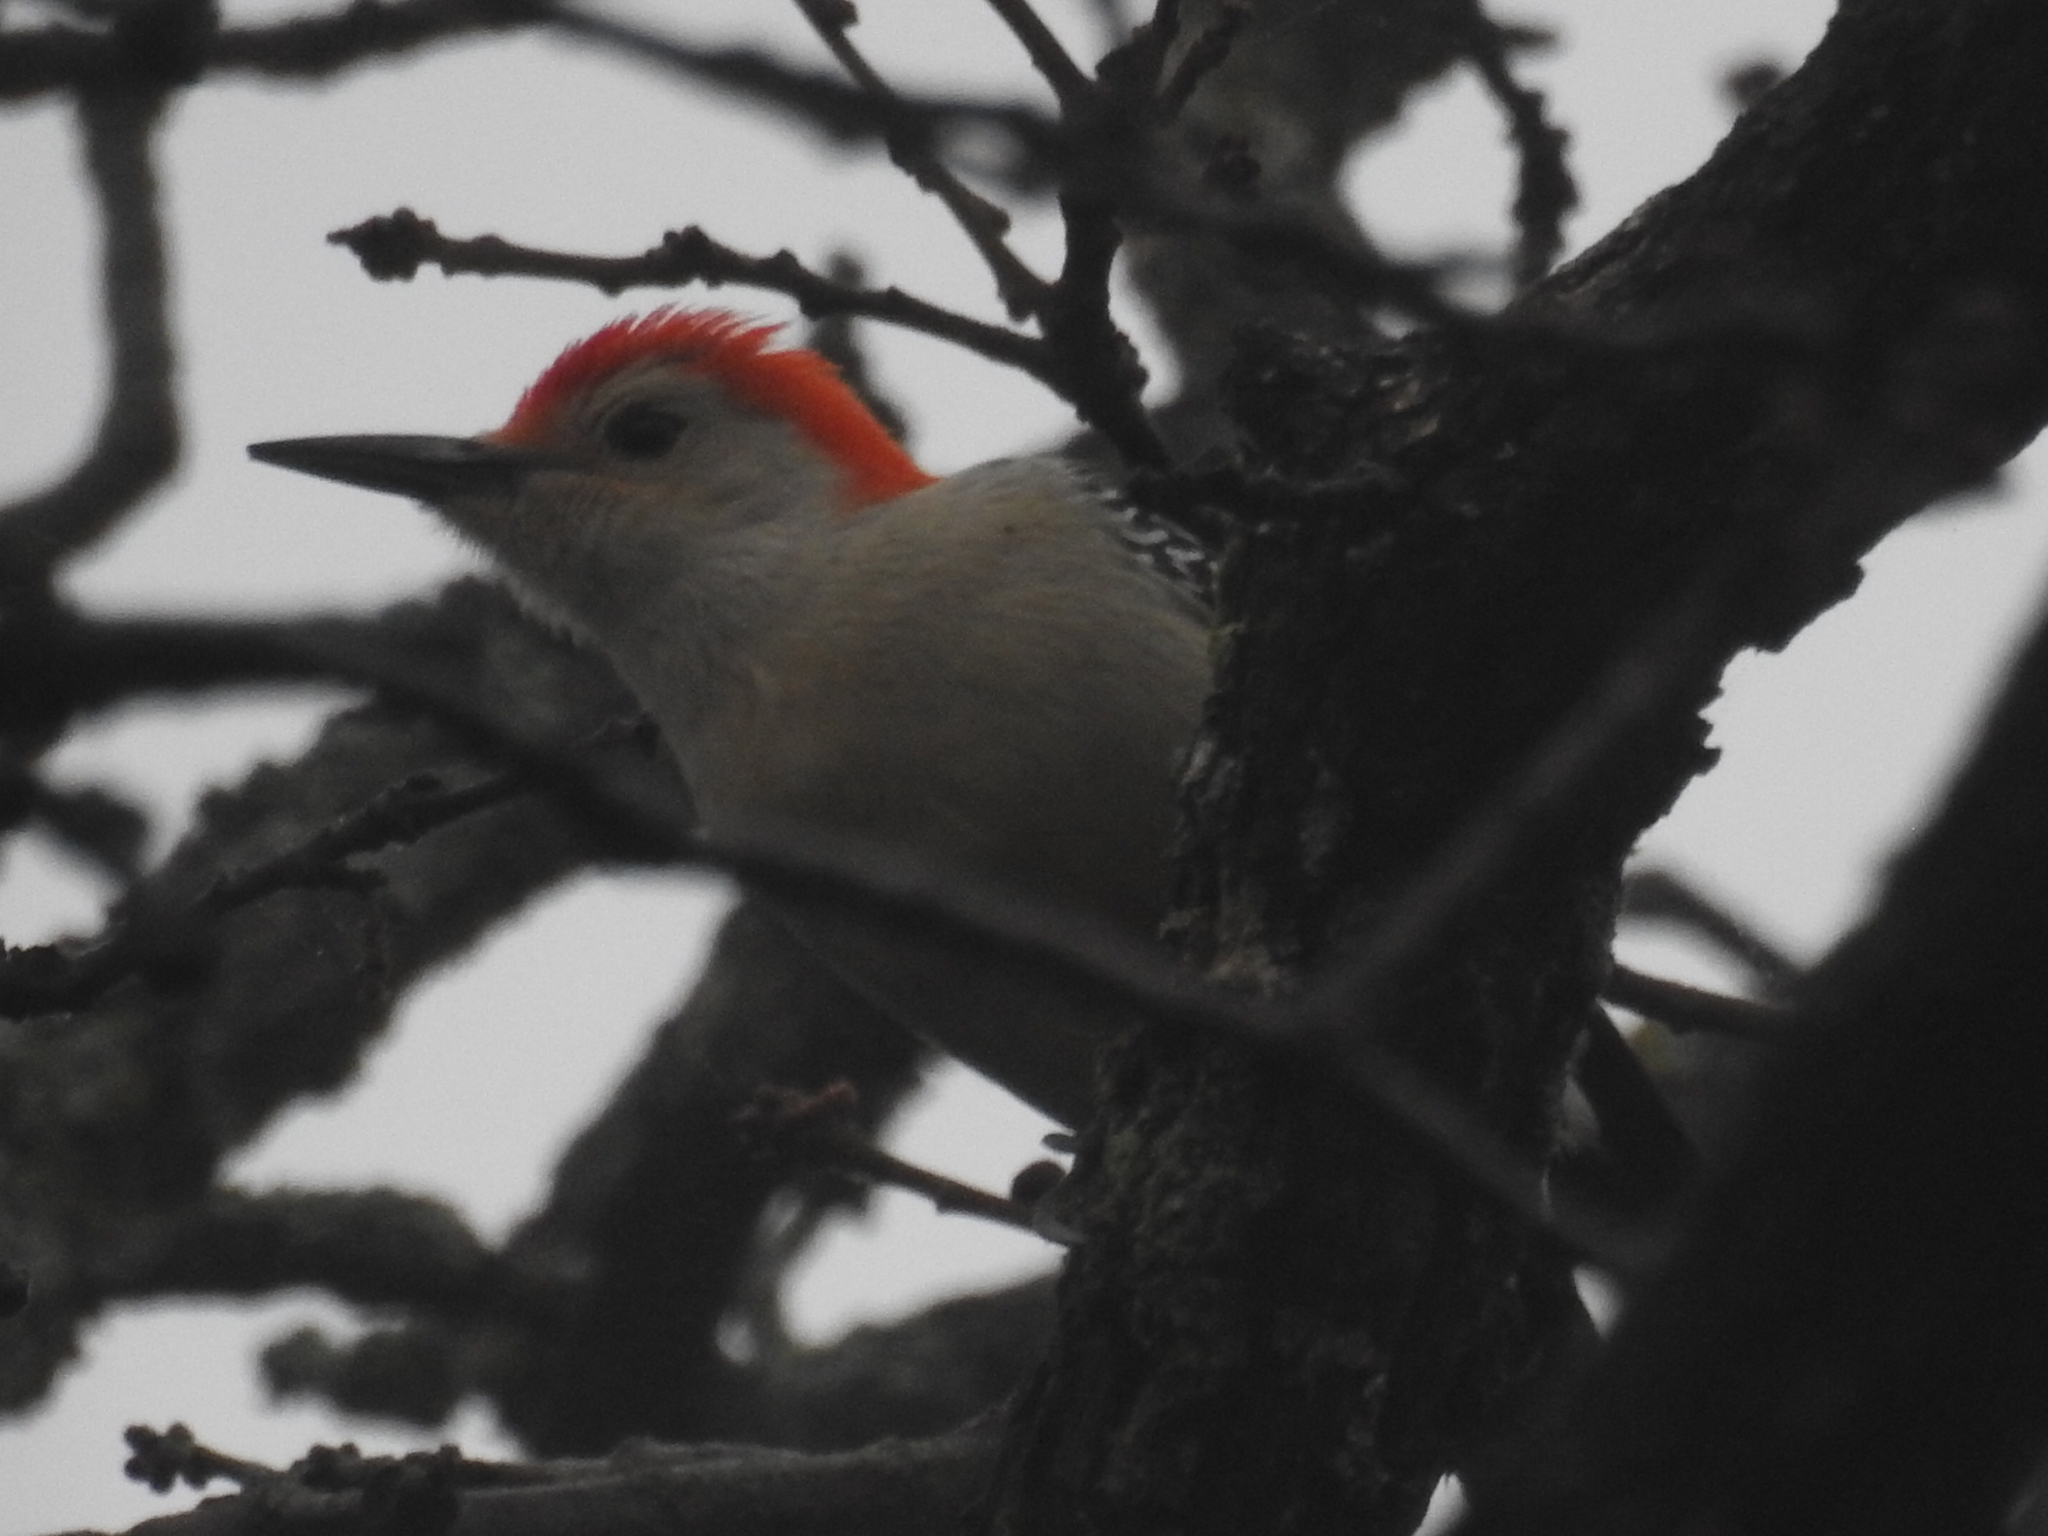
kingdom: Animalia
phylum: Chordata
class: Aves
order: Piciformes
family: Picidae
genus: Melanerpes
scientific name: Melanerpes carolinus
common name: Red-bellied woodpecker
